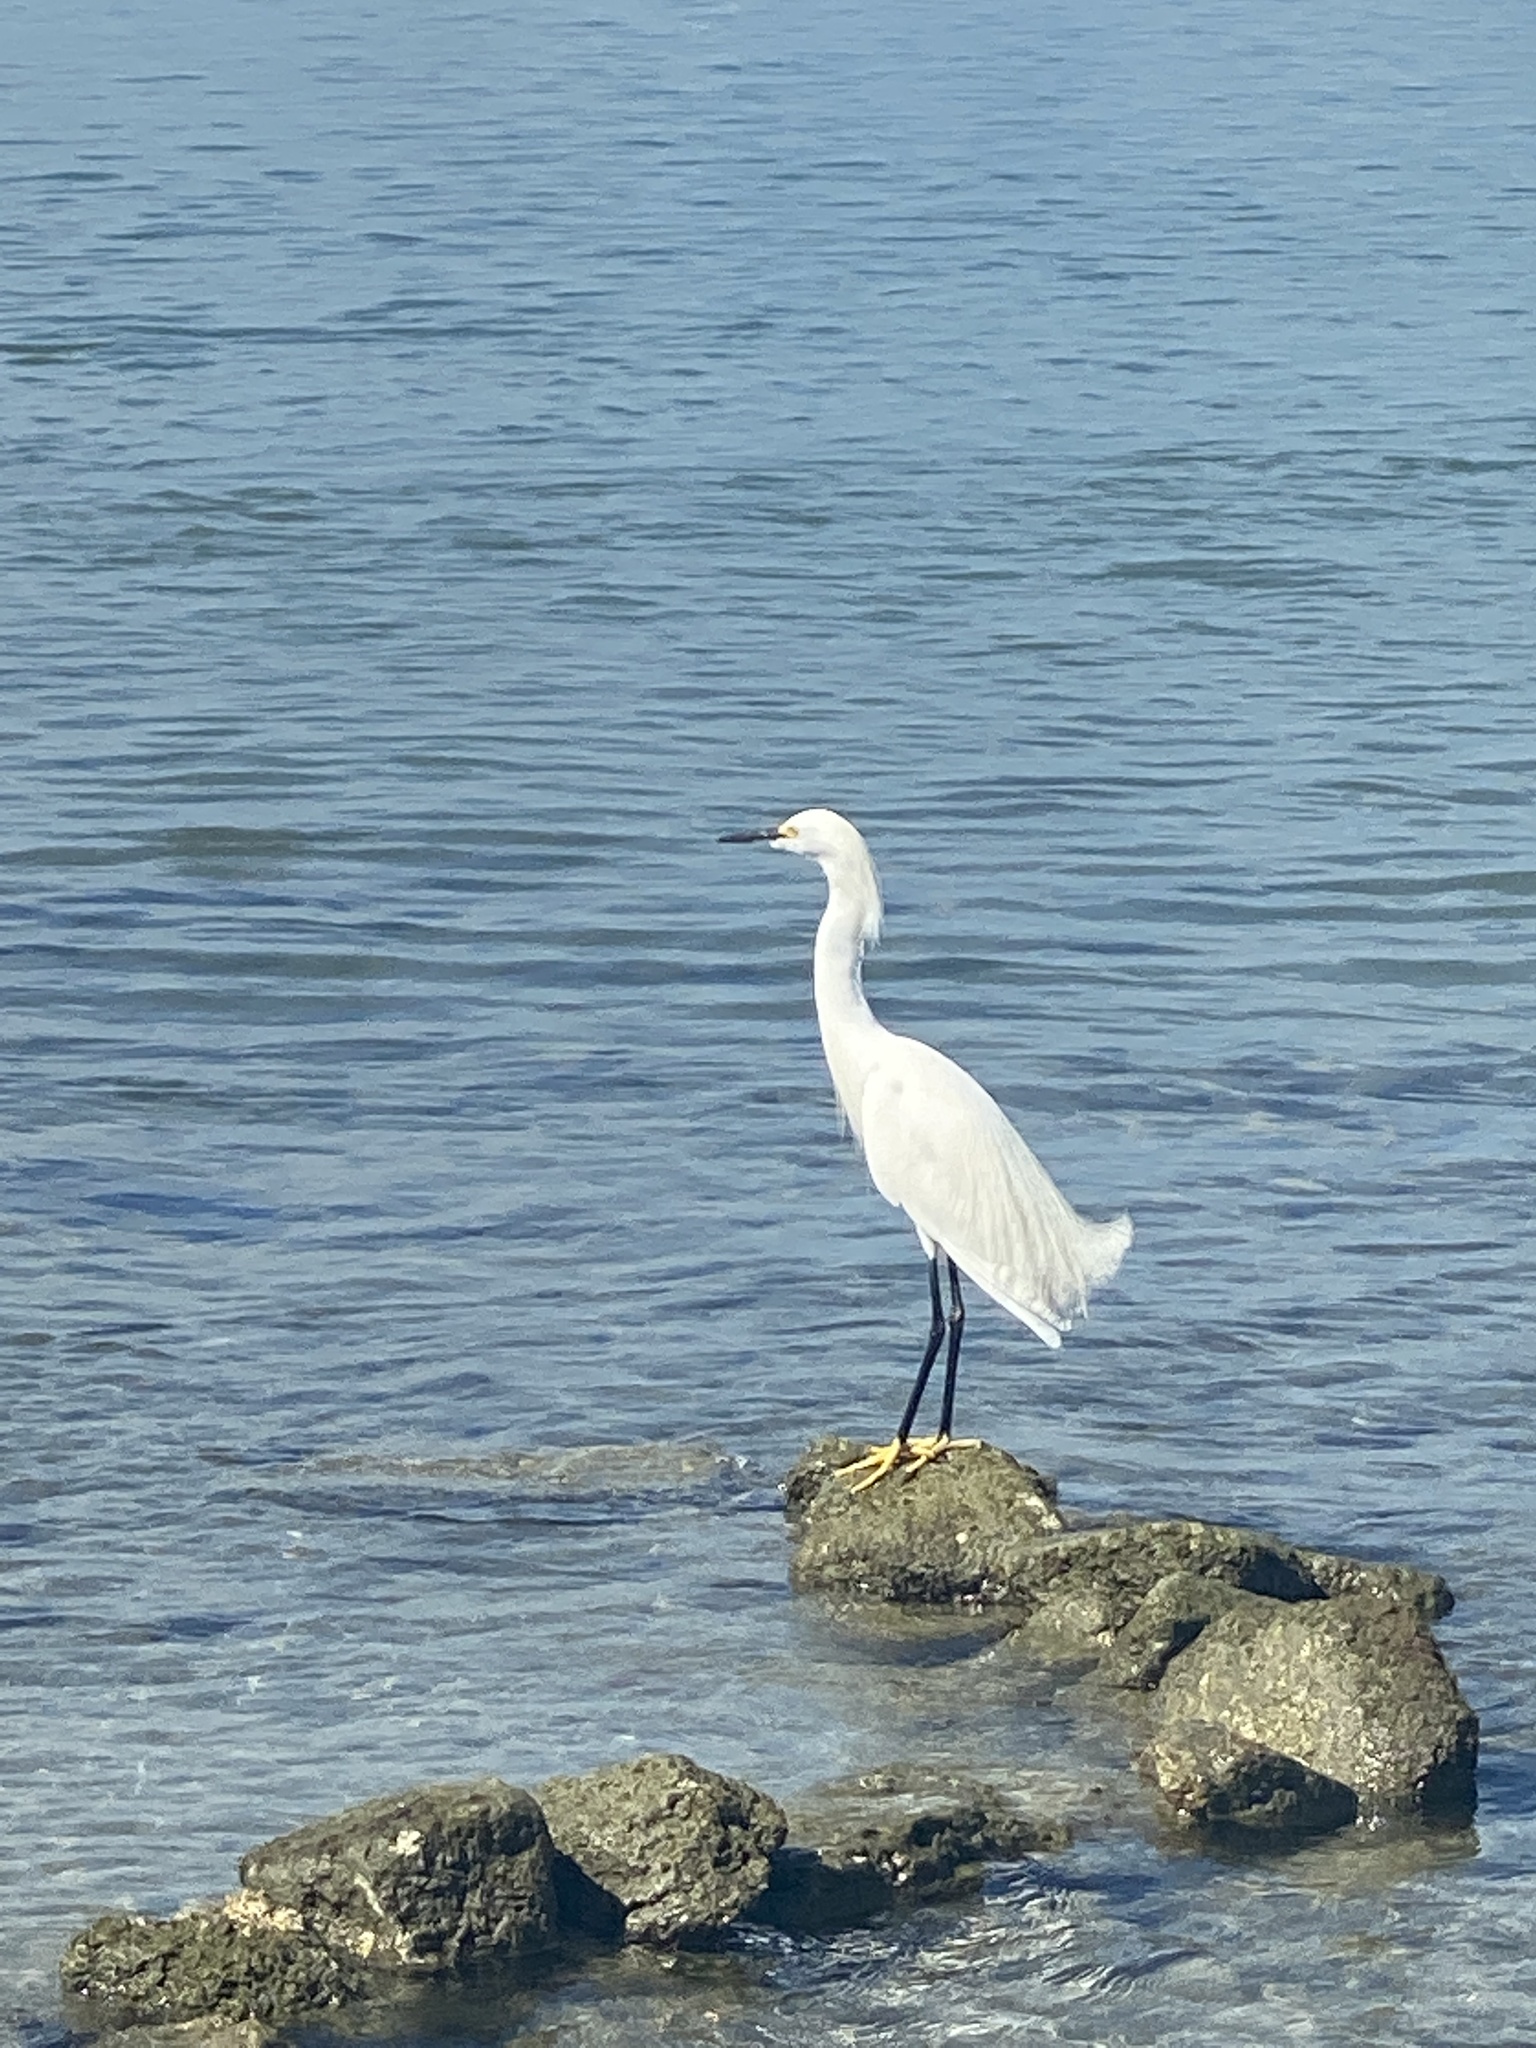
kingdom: Animalia
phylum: Chordata
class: Aves
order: Pelecaniformes
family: Ardeidae
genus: Egretta
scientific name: Egretta thula
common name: Snowy egret
